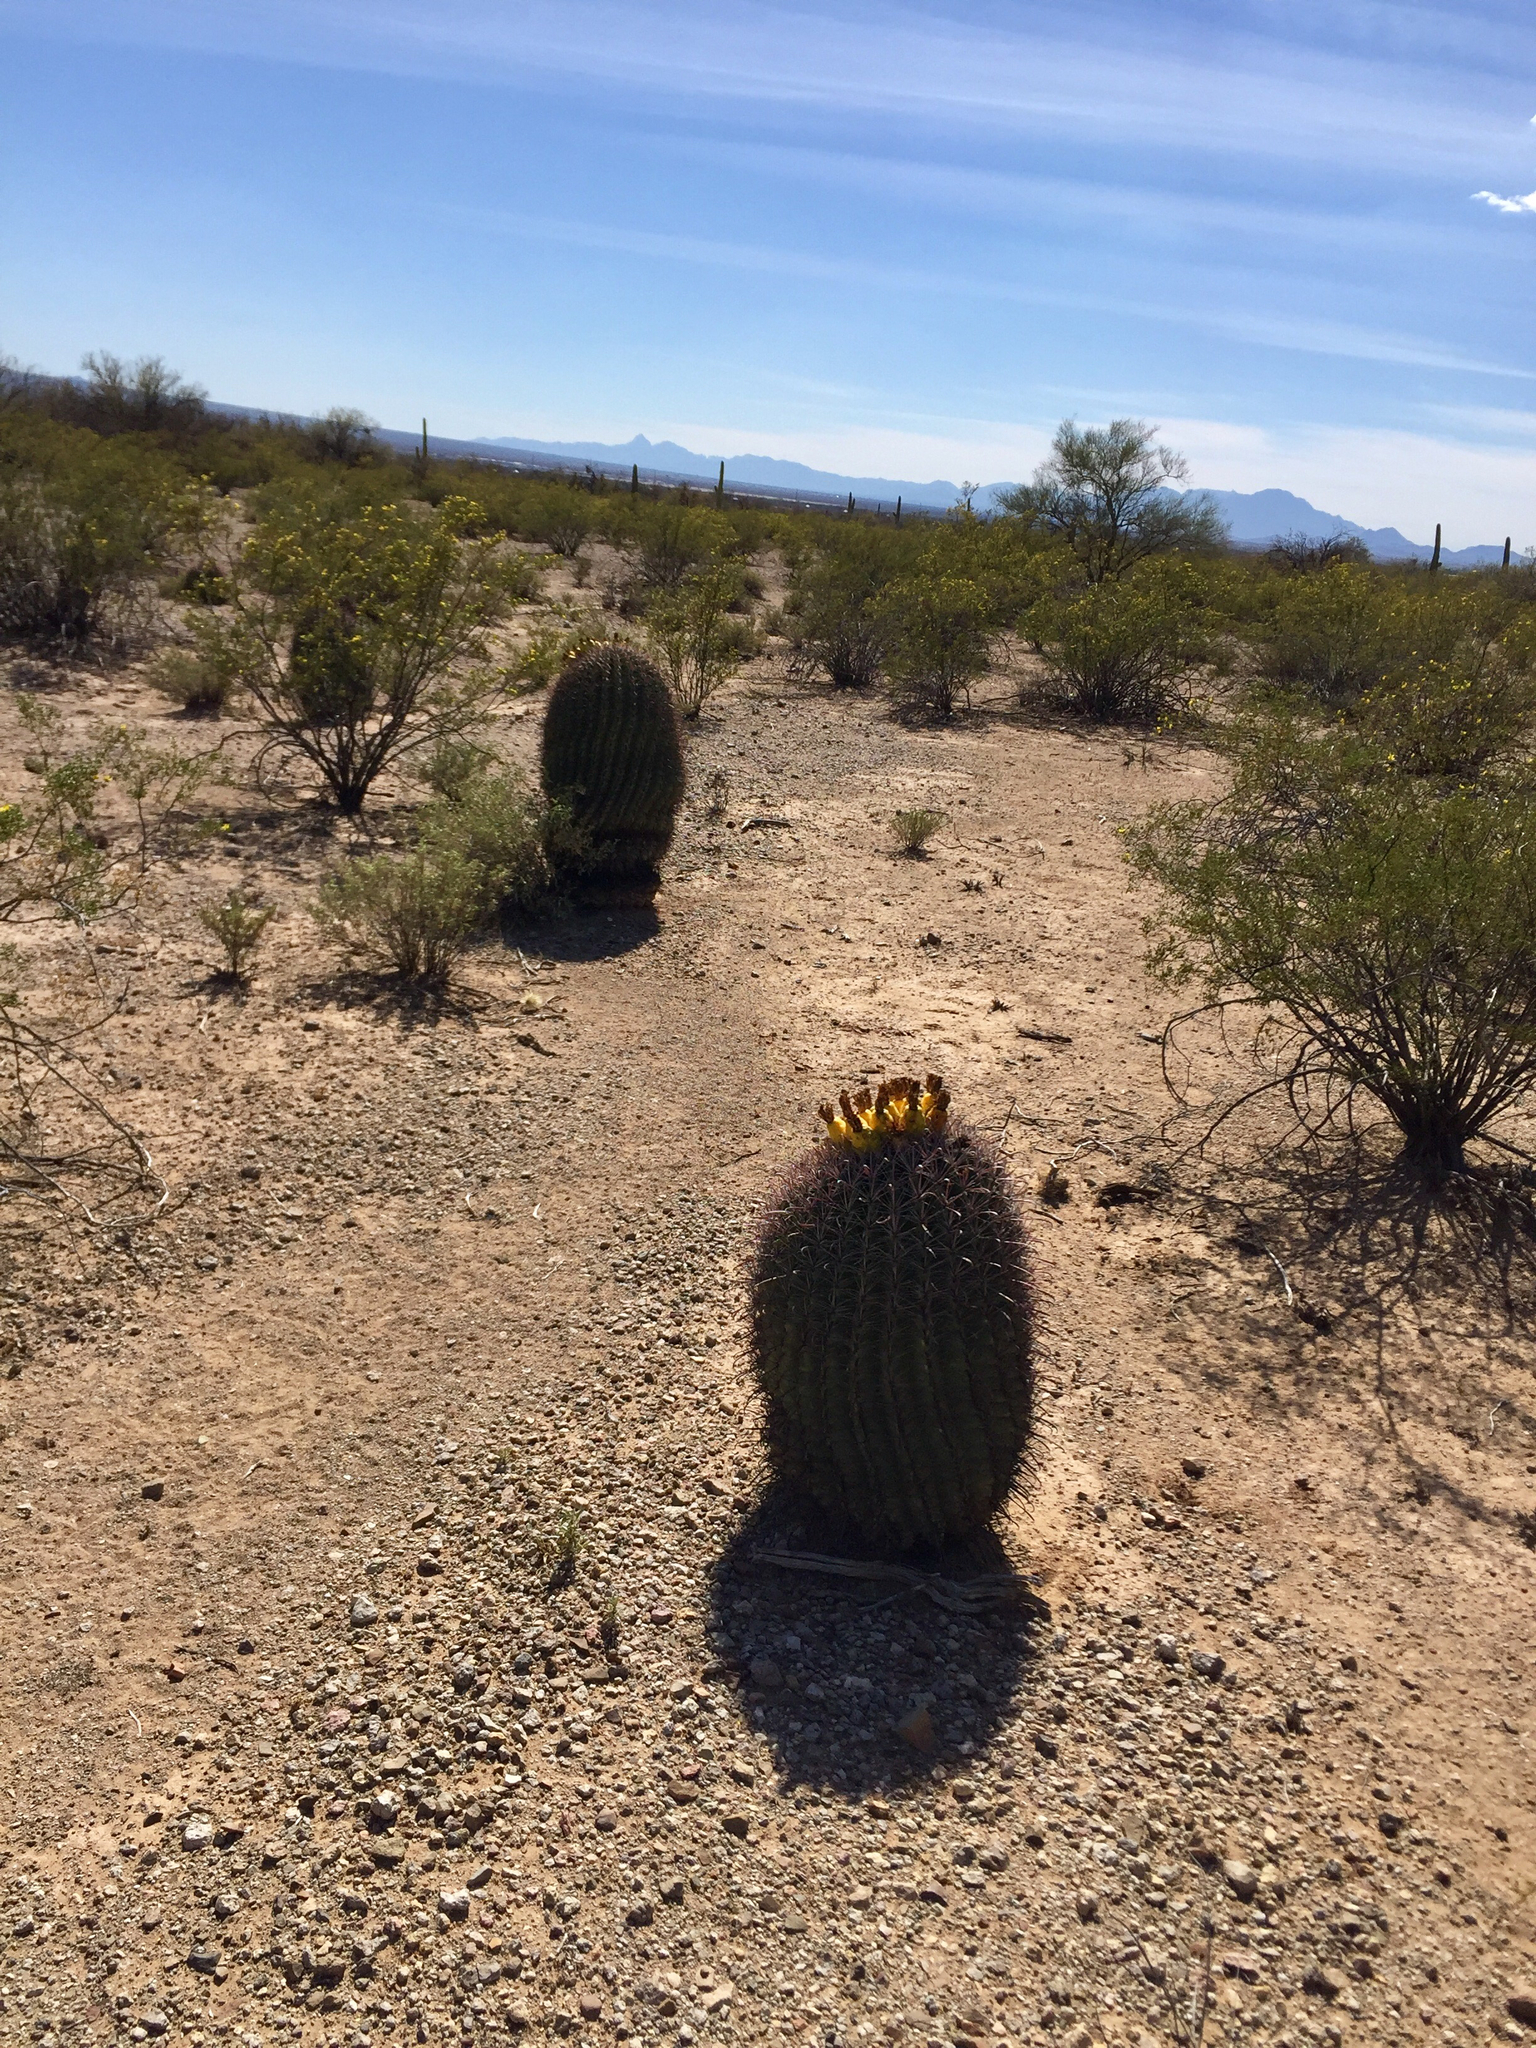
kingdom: Plantae
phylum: Tracheophyta
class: Magnoliopsida
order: Caryophyllales
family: Cactaceae
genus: Ferocactus
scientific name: Ferocactus wislizeni
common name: Candy barrel cactus
